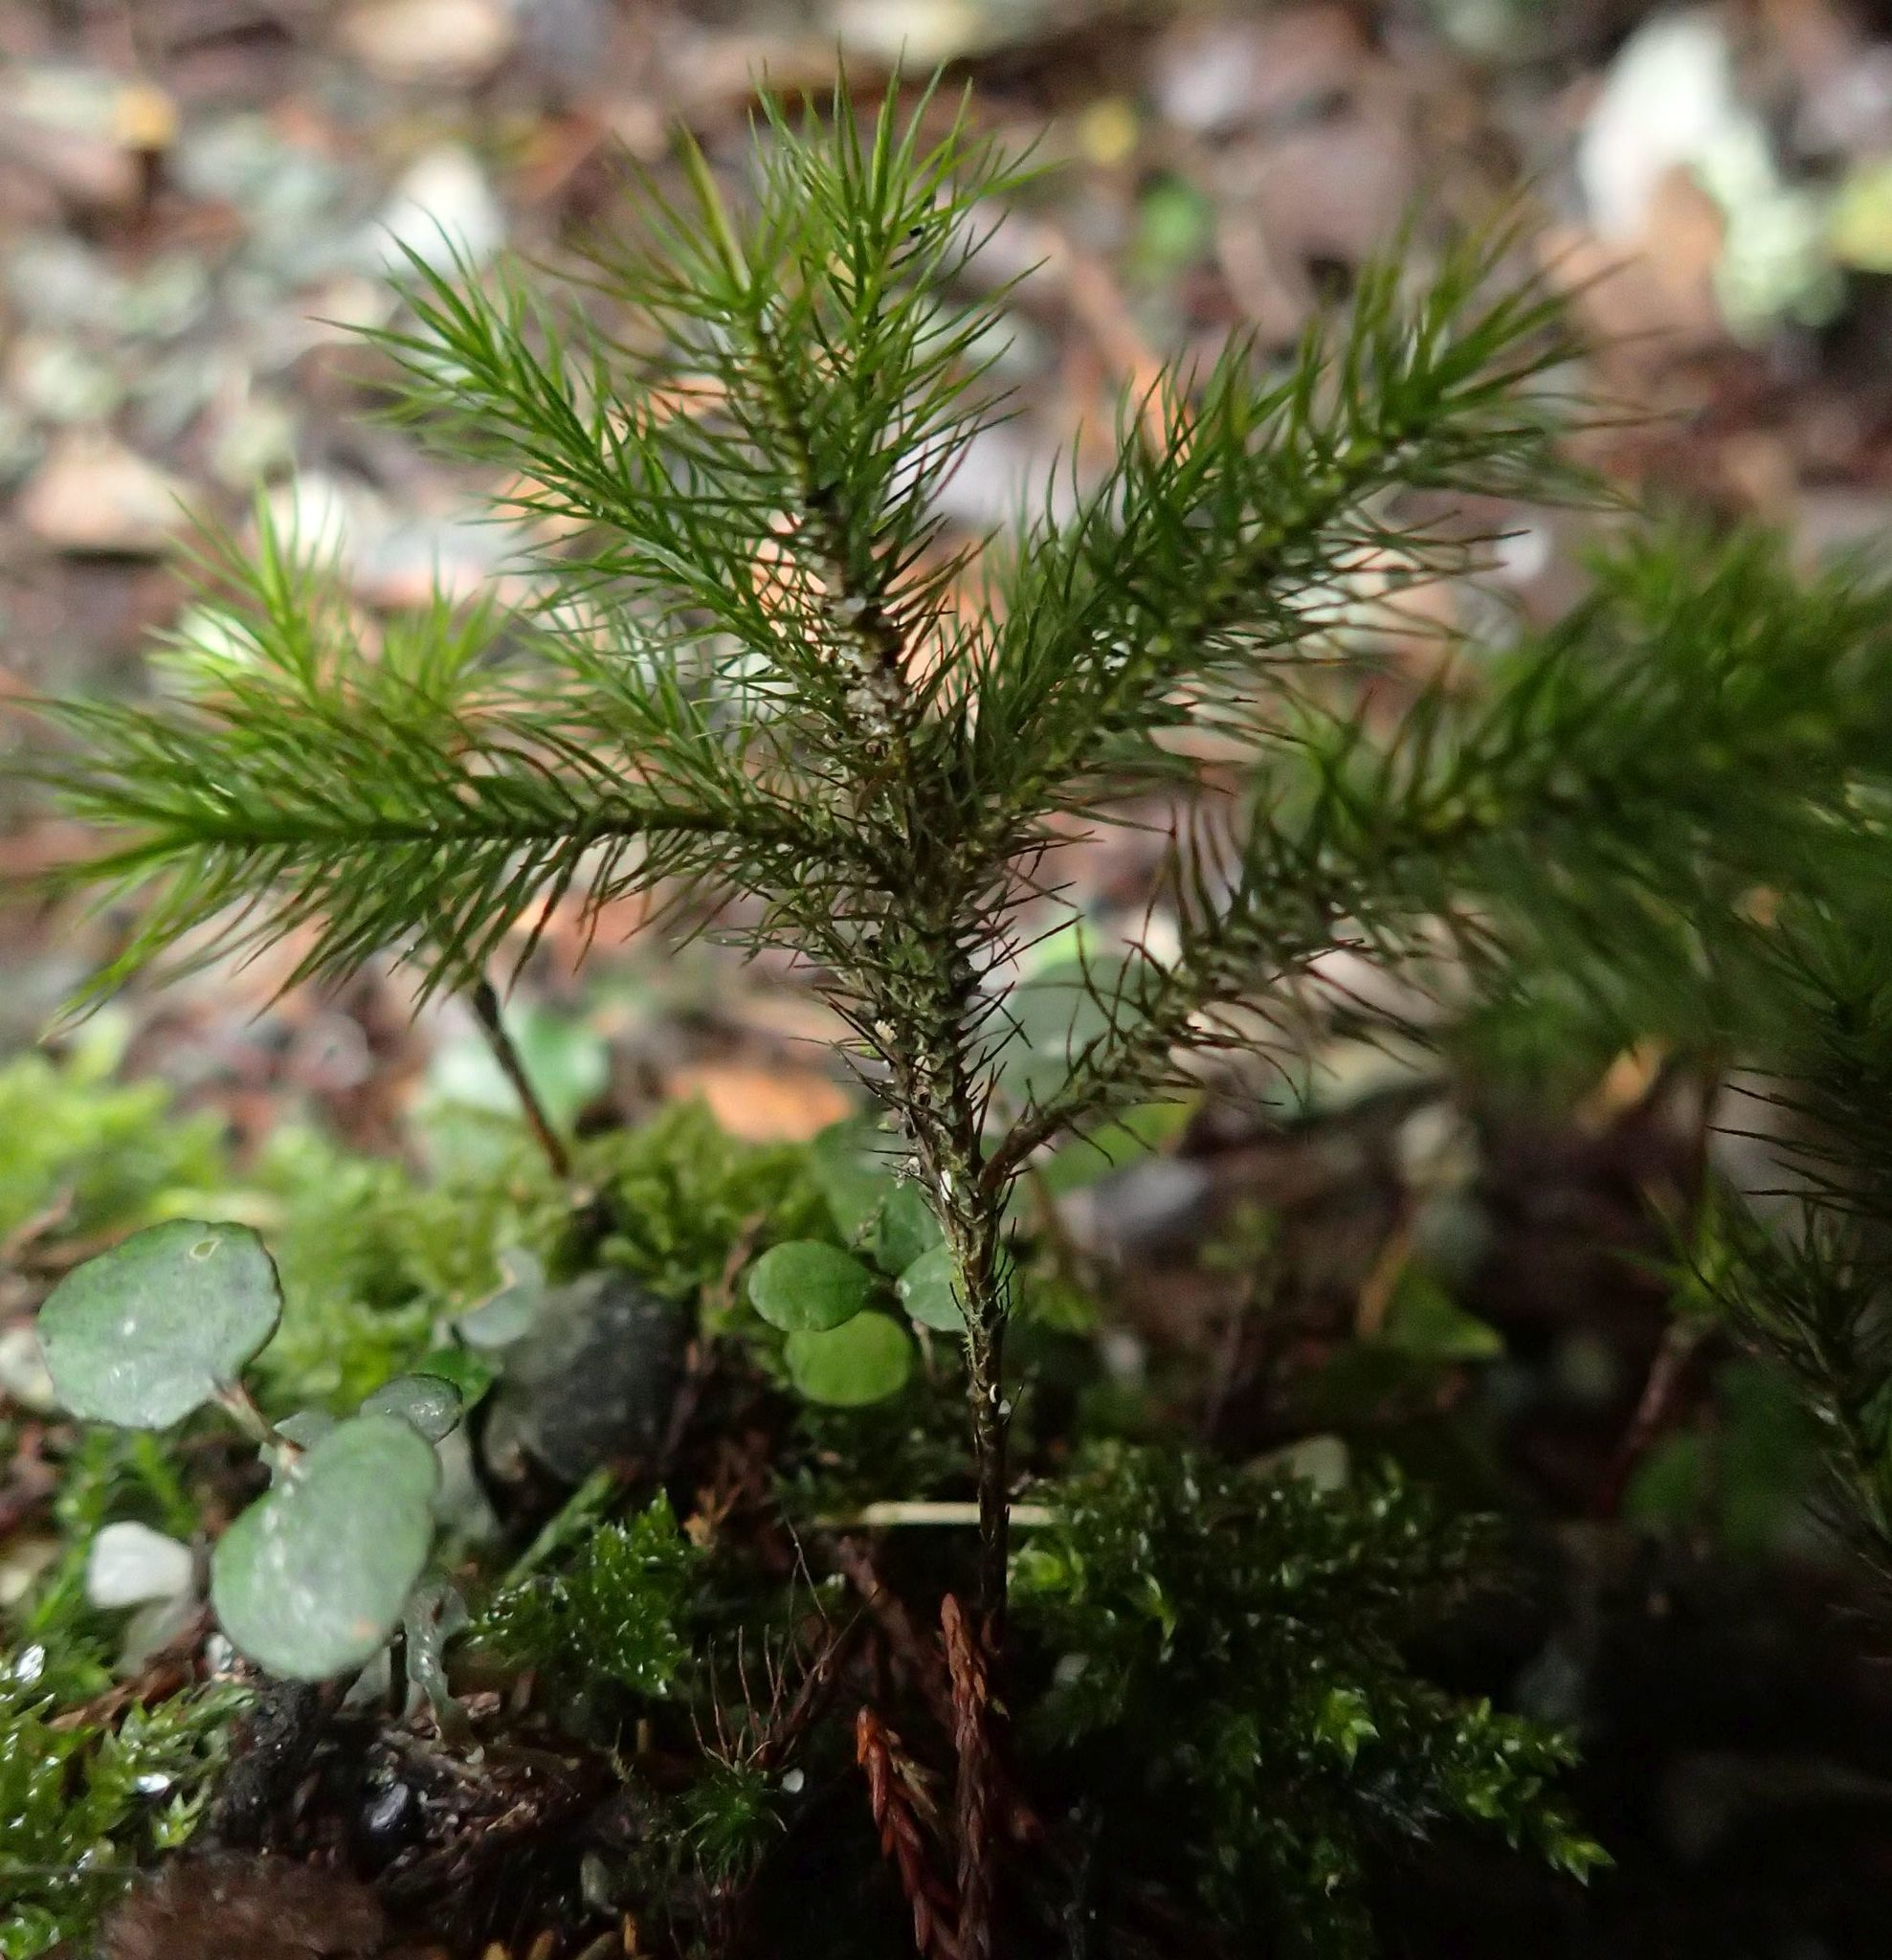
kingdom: Plantae
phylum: Bryophyta
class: Polytrichopsida
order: Polytrichales
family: Polytrichaceae
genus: Dendroligotrichum
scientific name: Dendroligotrichum tongariroense
